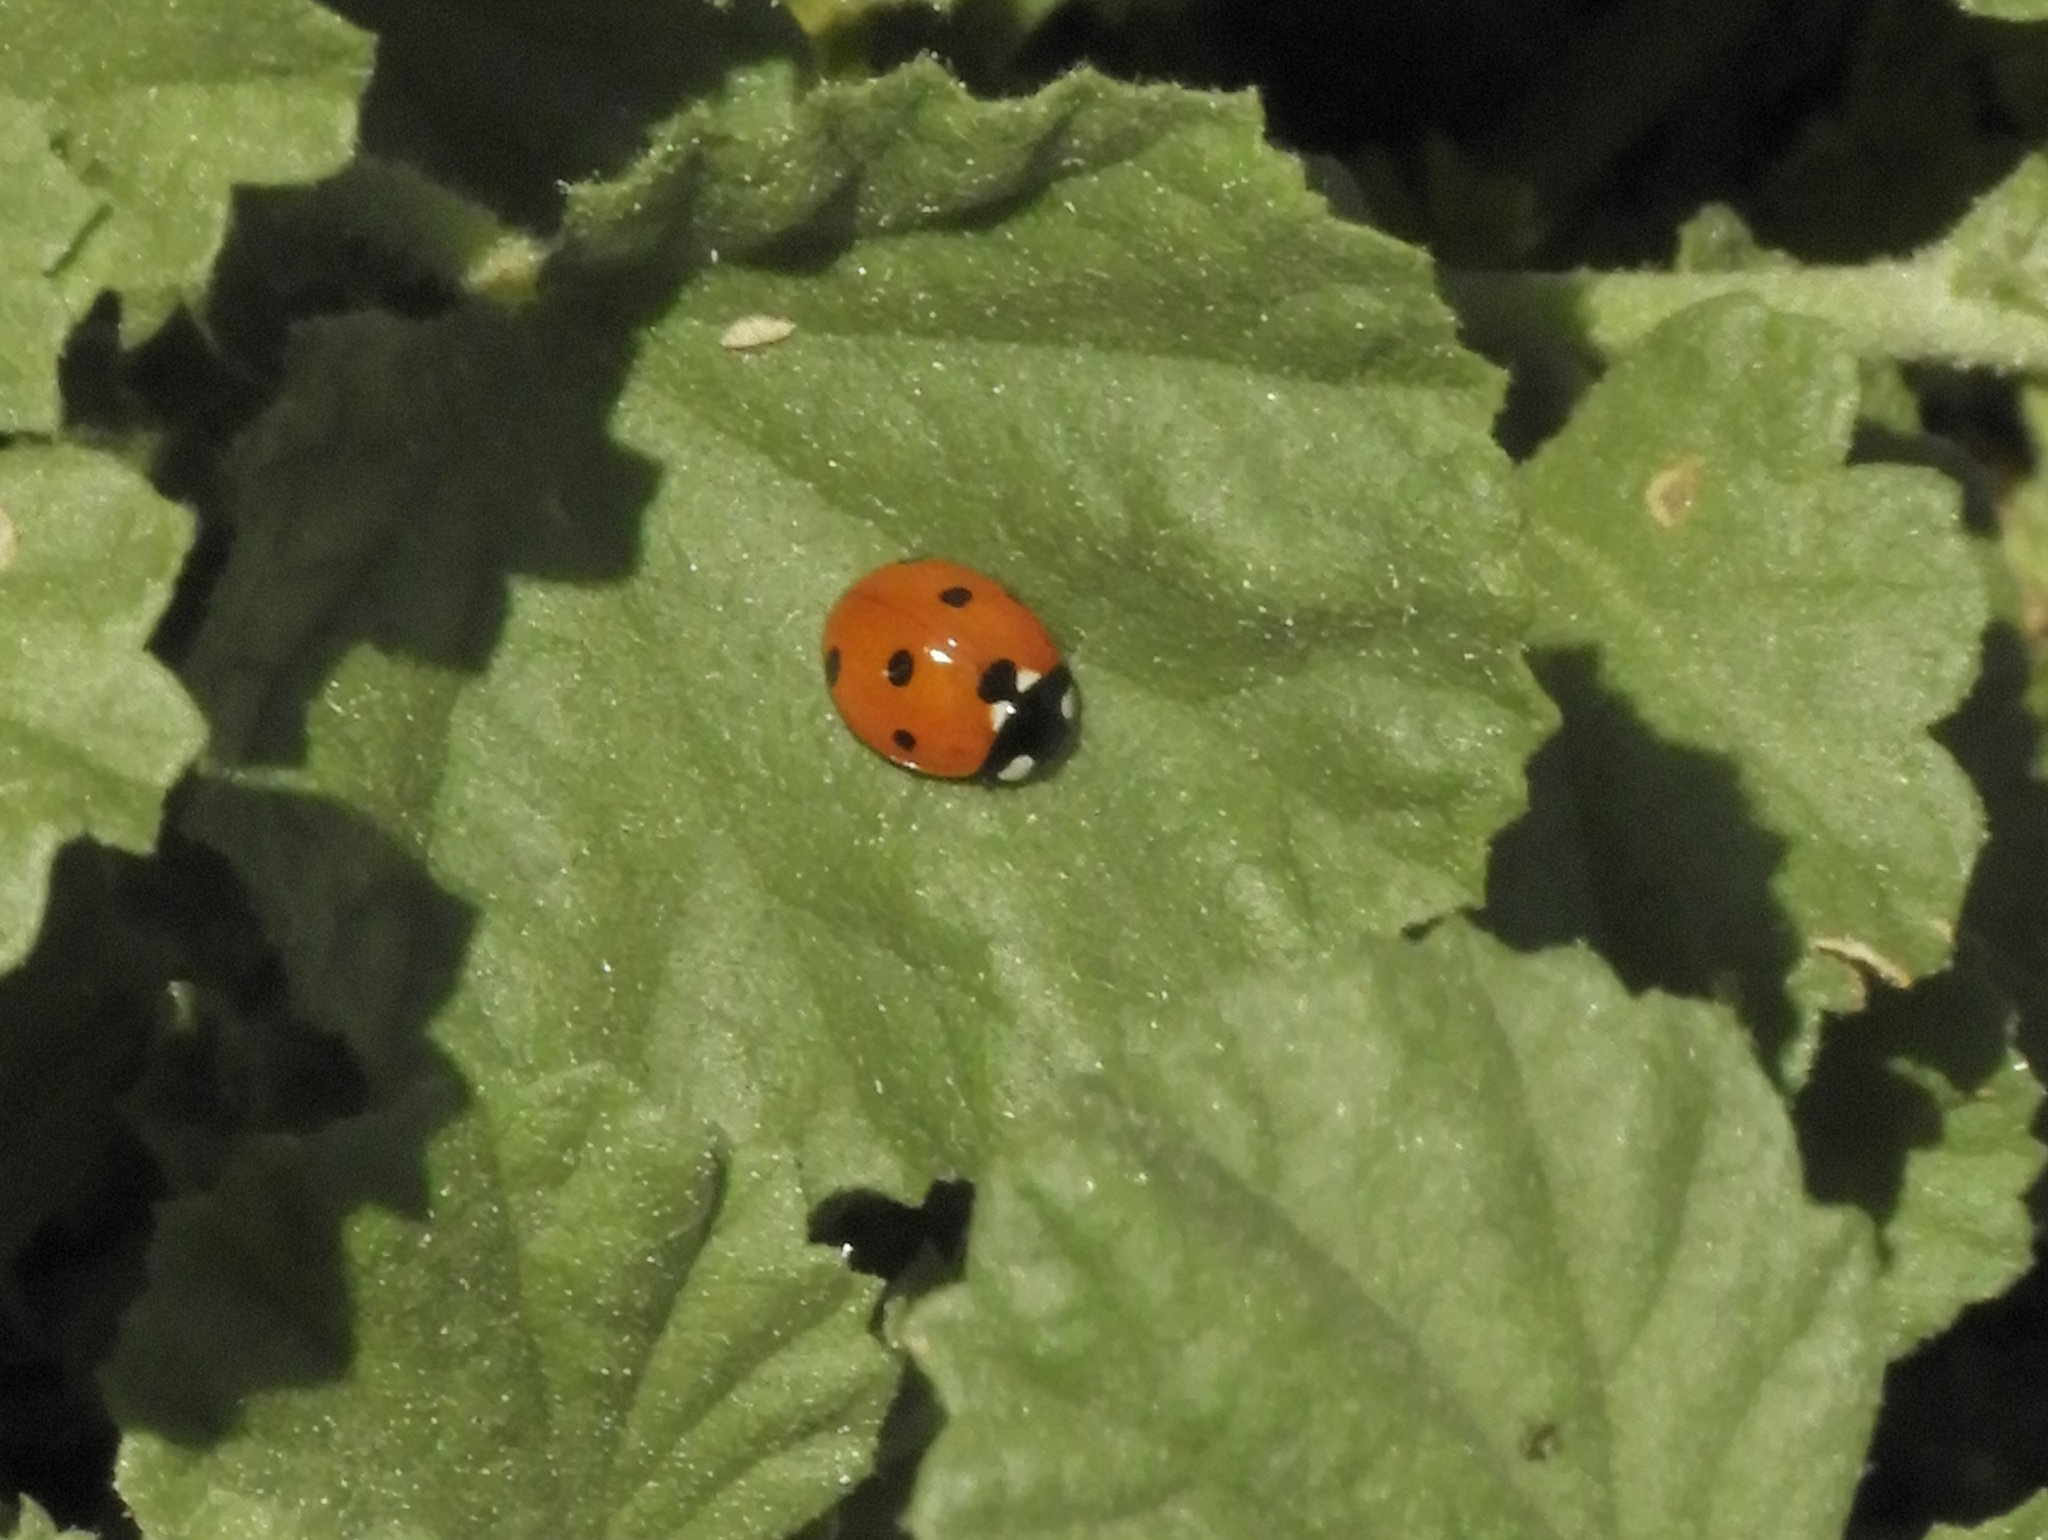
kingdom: Animalia
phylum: Arthropoda
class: Insecta
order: Coleoptera
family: Coccinellidae
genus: Coccinella
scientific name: Coccinella septempunctata
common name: Sevenspotted lady beetle
